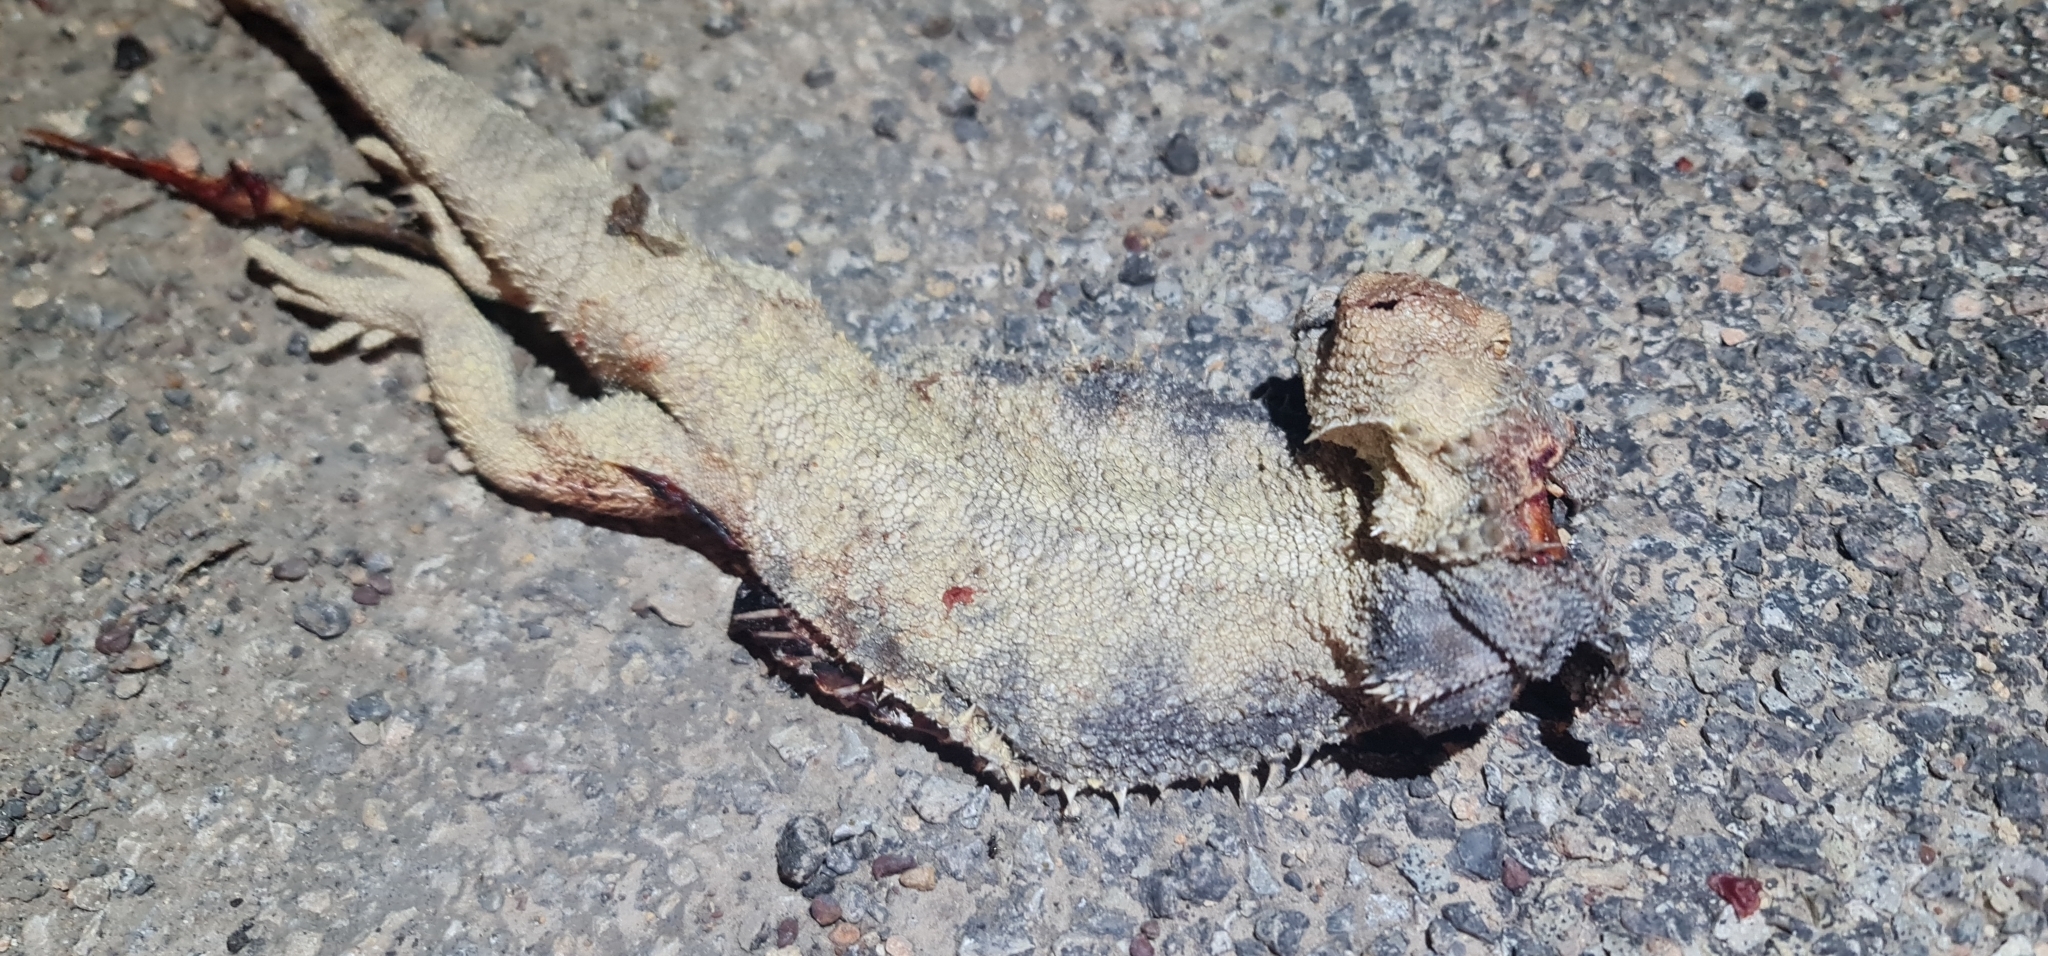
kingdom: Animalia
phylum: Chordata
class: Squamata
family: Agamidae
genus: Pogona
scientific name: Pogona vitticeps
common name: Central bearded dragon
